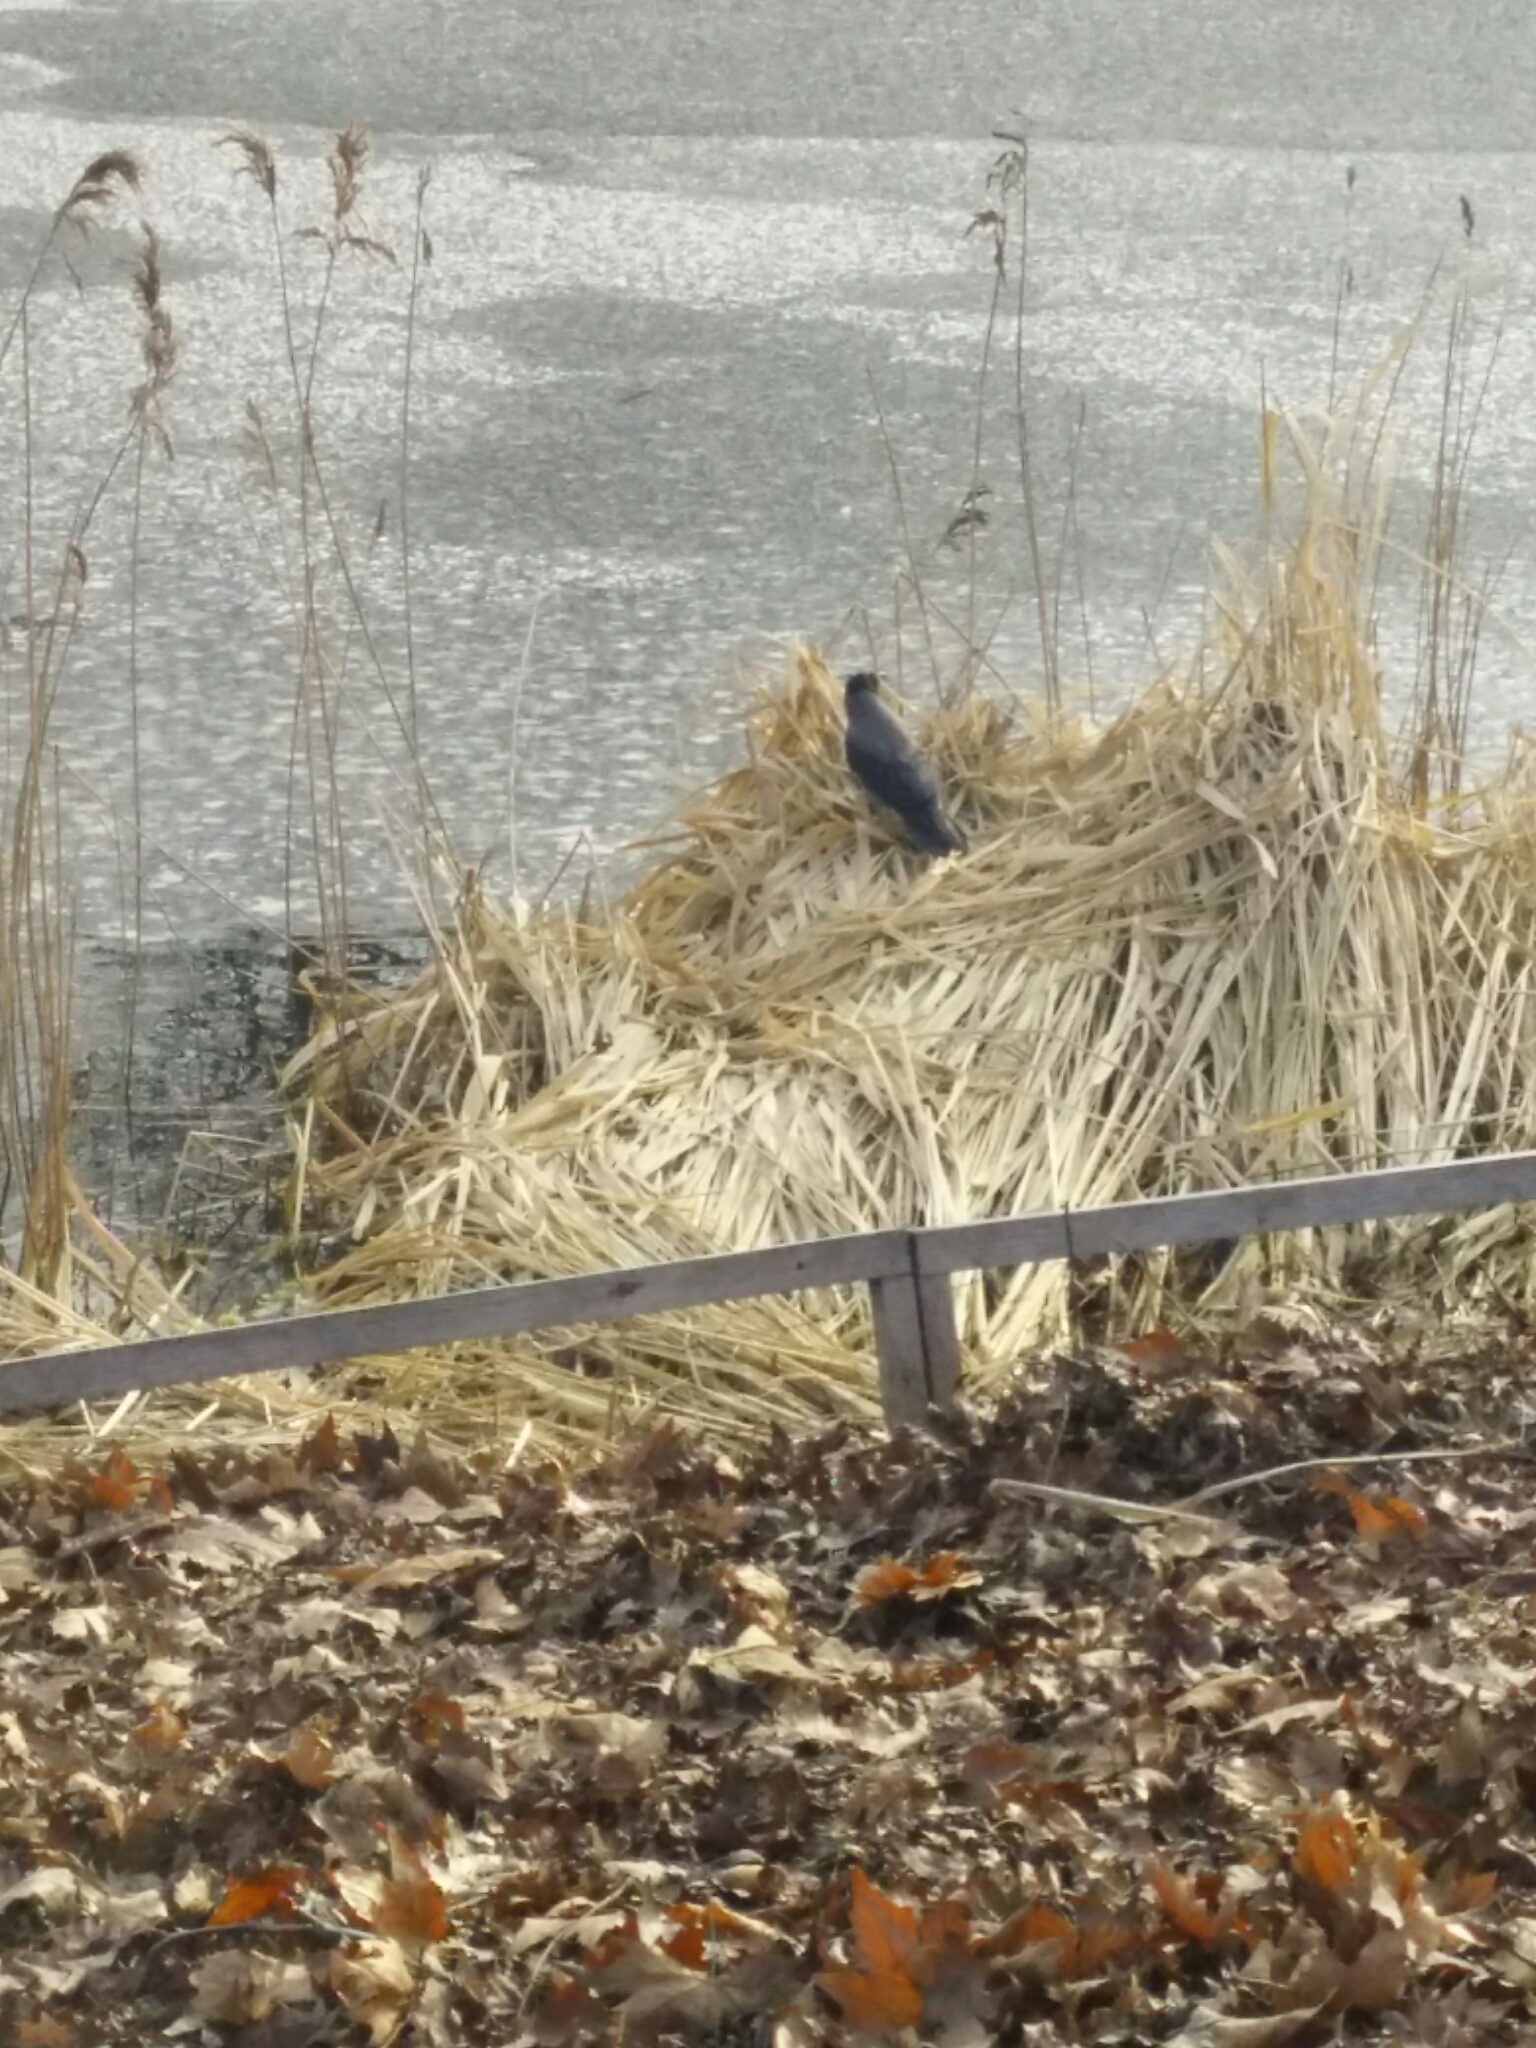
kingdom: Animalia
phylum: Chordata
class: Aves
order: Passeriformes
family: Corvidae
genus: Corvus
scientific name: Corvus cornix
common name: Hooded crow
